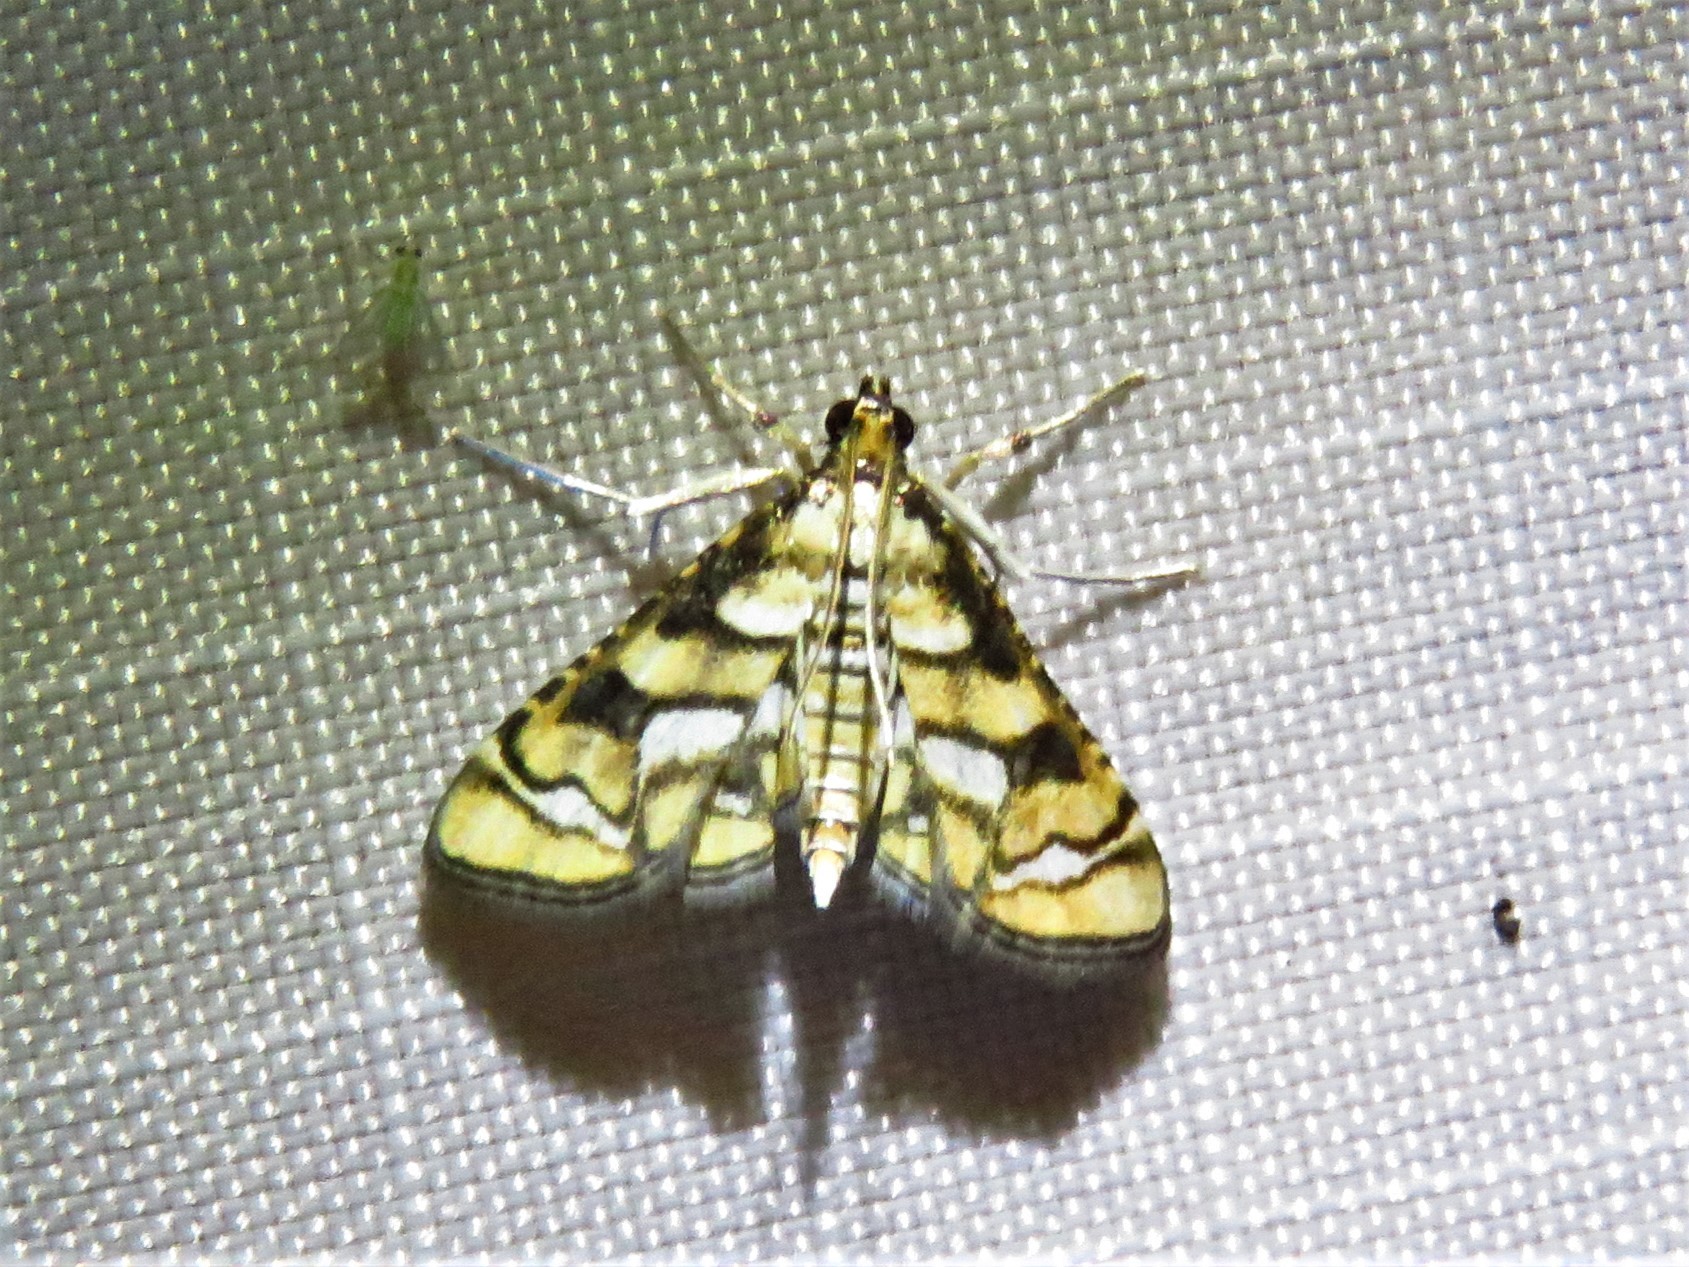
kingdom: Animalia
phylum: Arthropoda
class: Insecta
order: Lepidoptera
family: Crambidae
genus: Hileithia
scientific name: Hileithia magualis
